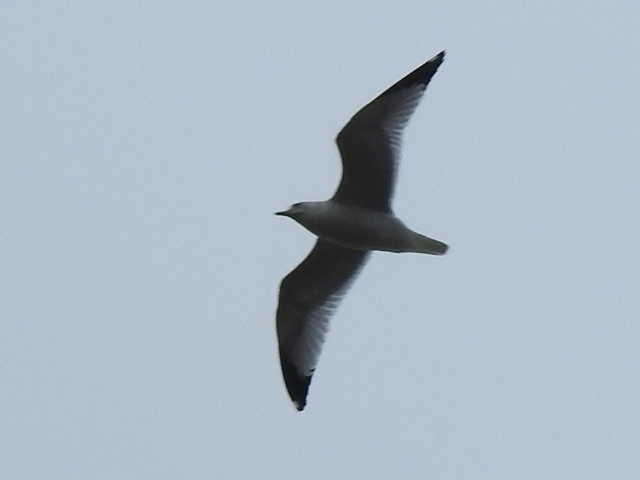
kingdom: Animalia
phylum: Chordata
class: Aves
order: Charadriiformes
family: Laridae
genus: Larus
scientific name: Larus delawarensis
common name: Ring-billed gull
